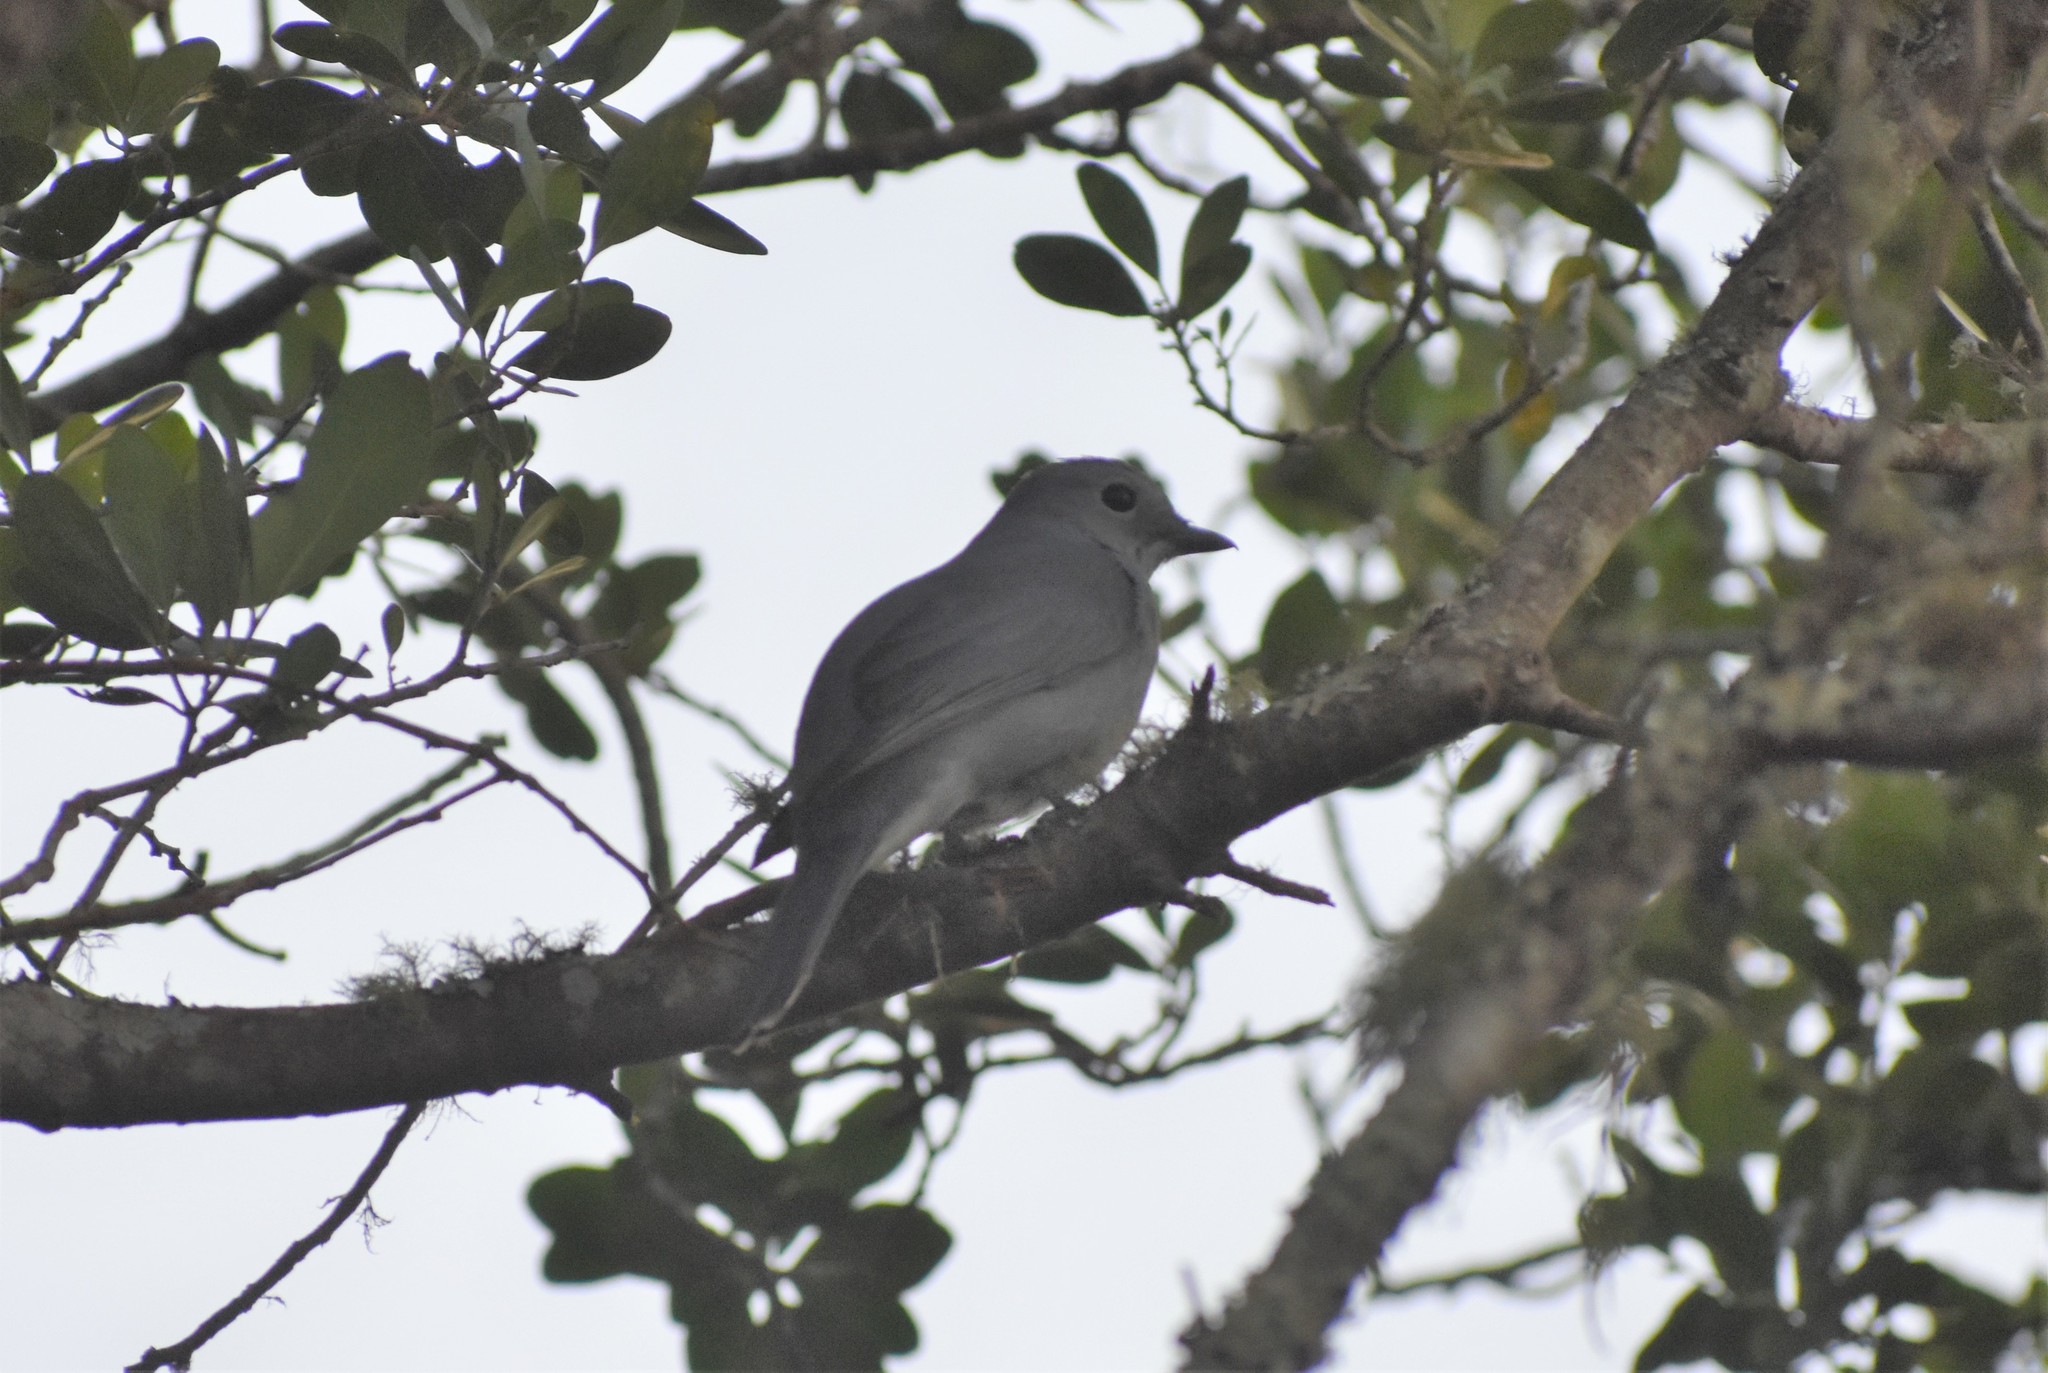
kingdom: Animalia
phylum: Chordata
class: Aves
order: Passeriformes
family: Campephagidae
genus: Coracina
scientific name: Coracina caesia
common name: Grey cuckooshrike
